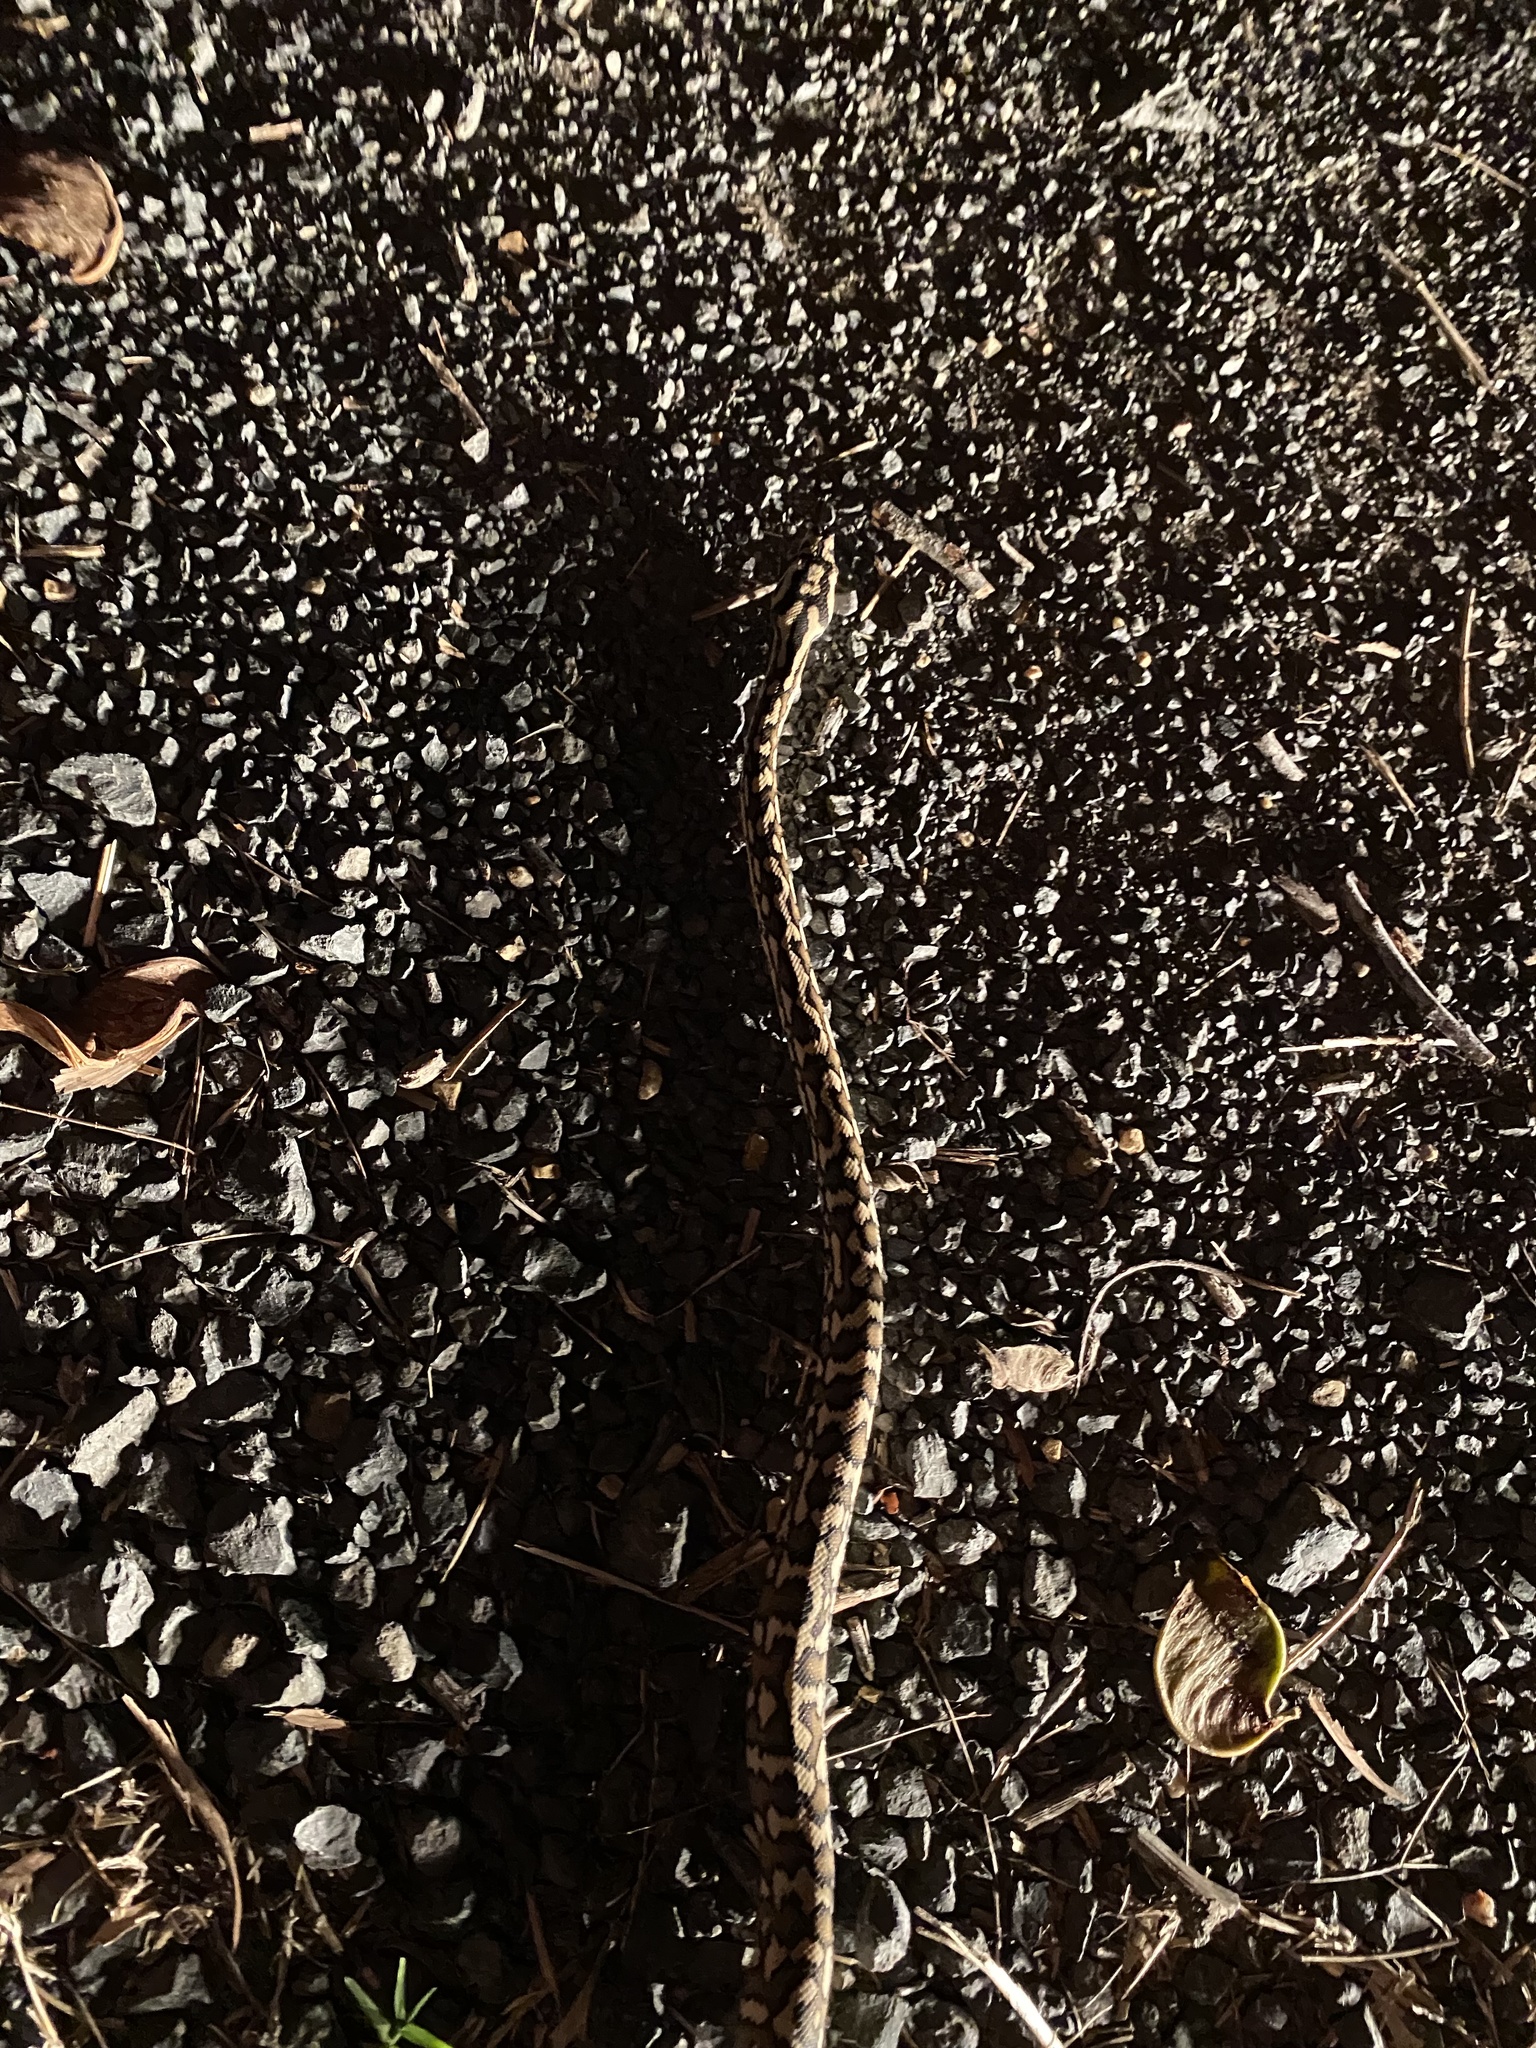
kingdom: Animalia
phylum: Chordata
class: Squamata
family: Pythonidae
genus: Morelia
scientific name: Morelia spilota
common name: Carpet python
